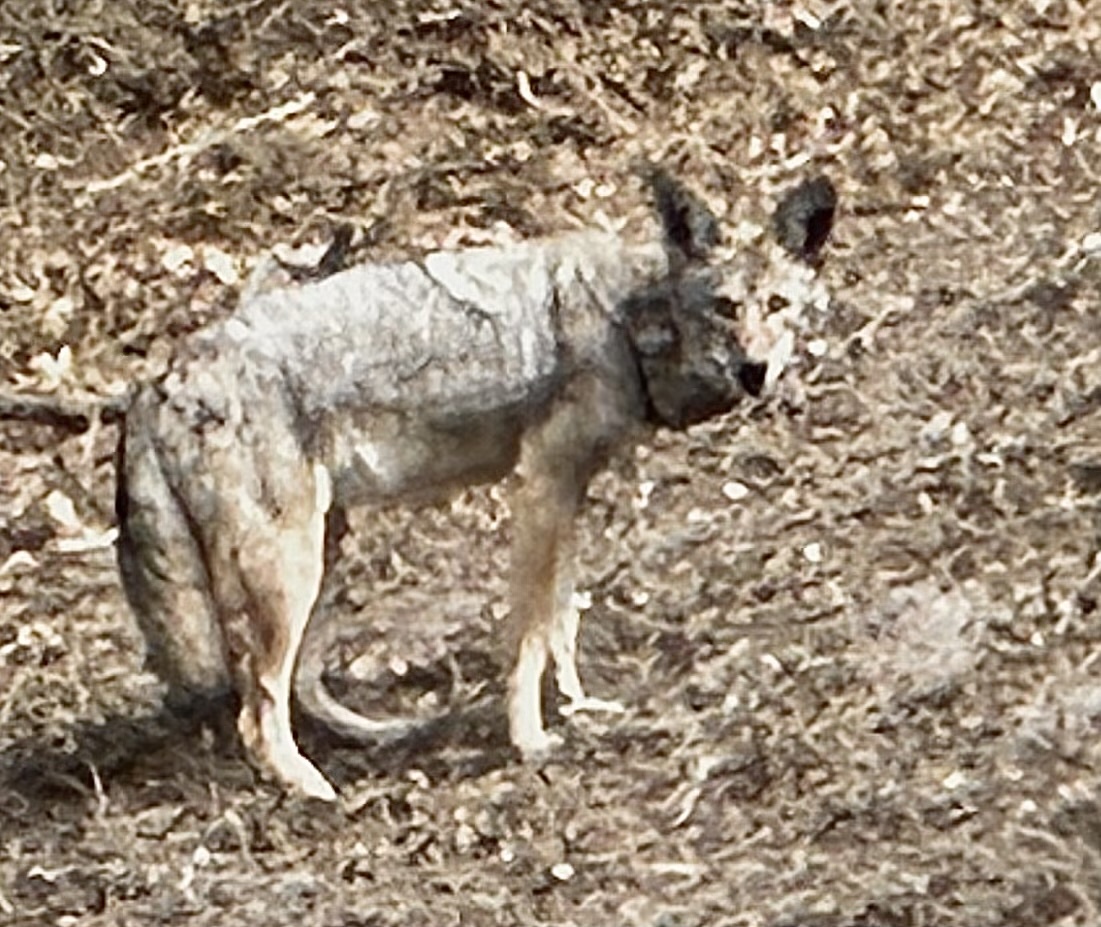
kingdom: Animalia
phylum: Chordata
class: Mammalia
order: Carnivora
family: Canidae
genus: Canis
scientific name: Canis latrans
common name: Coyote
